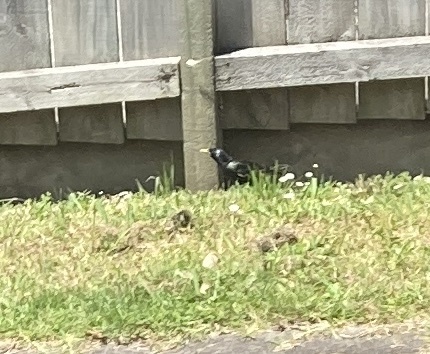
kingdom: Animalia
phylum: Chordata
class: Aves
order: Passeriformes
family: Sturnidae
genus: Sturnus
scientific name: Sturnus vulgaris
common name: Common starling
